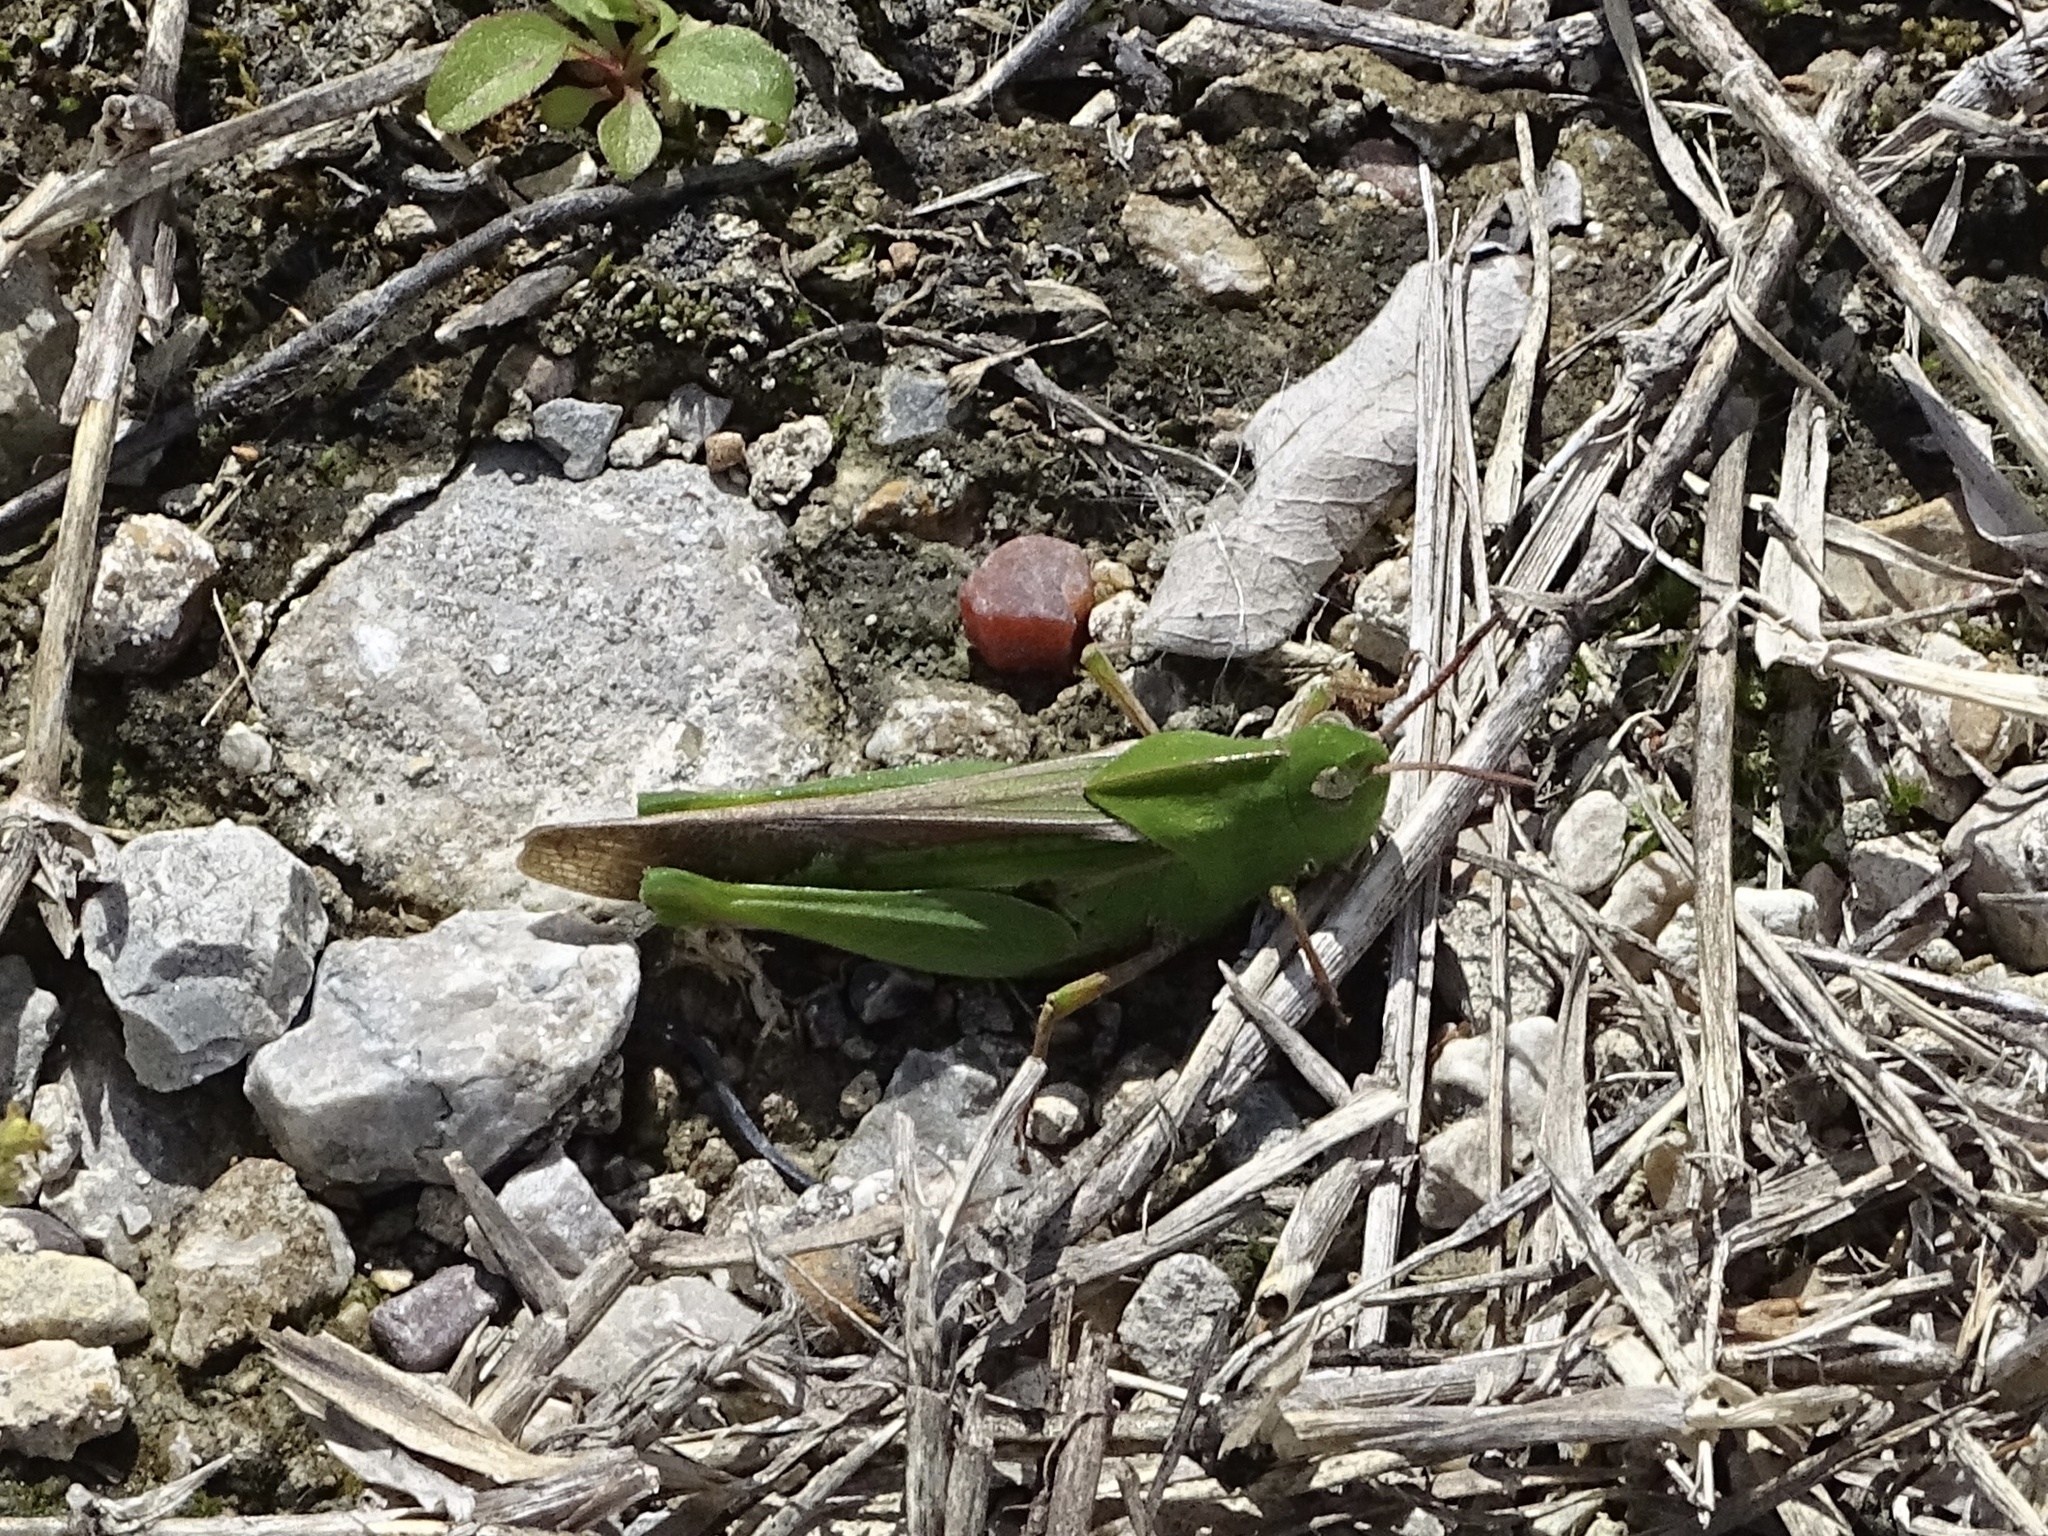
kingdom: Animalia
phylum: Arthropoda
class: Insecta
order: Orthoptera
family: Acrididae
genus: Chortophaga
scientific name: Chortophaga viridifasciata
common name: Green-striped grasshopper
